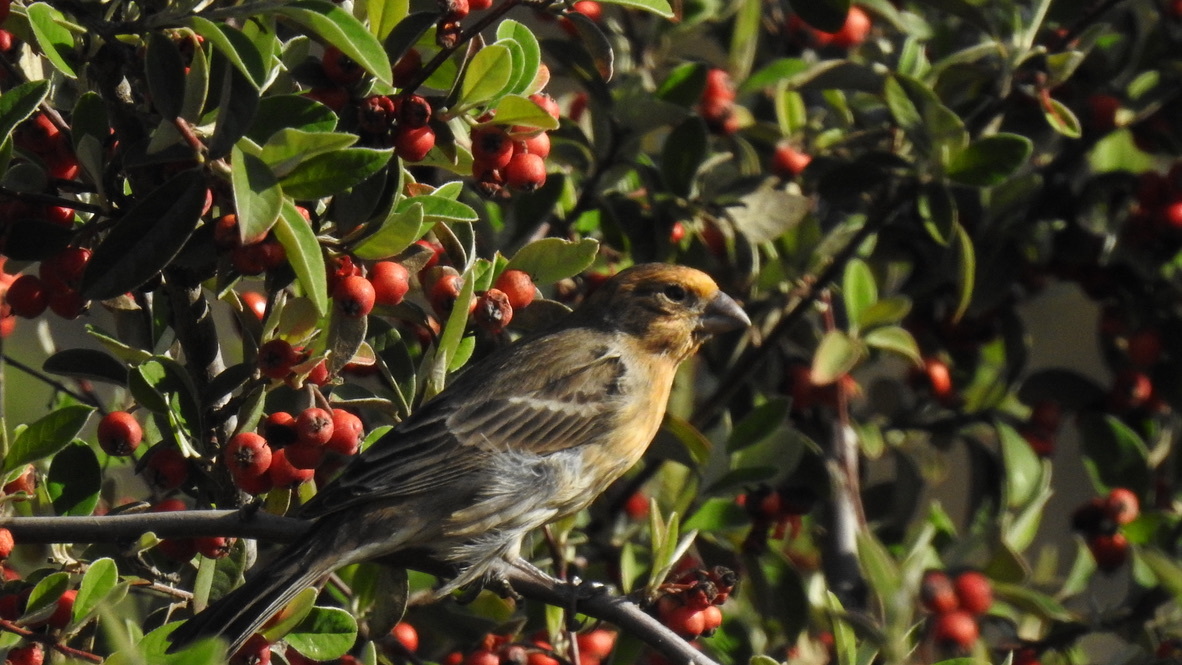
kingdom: Animalia
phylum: Chordata
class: Aves
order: Passeriformes
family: Fringillidae
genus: Haemorhous
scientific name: Haemorhous mexicanus
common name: House finch
